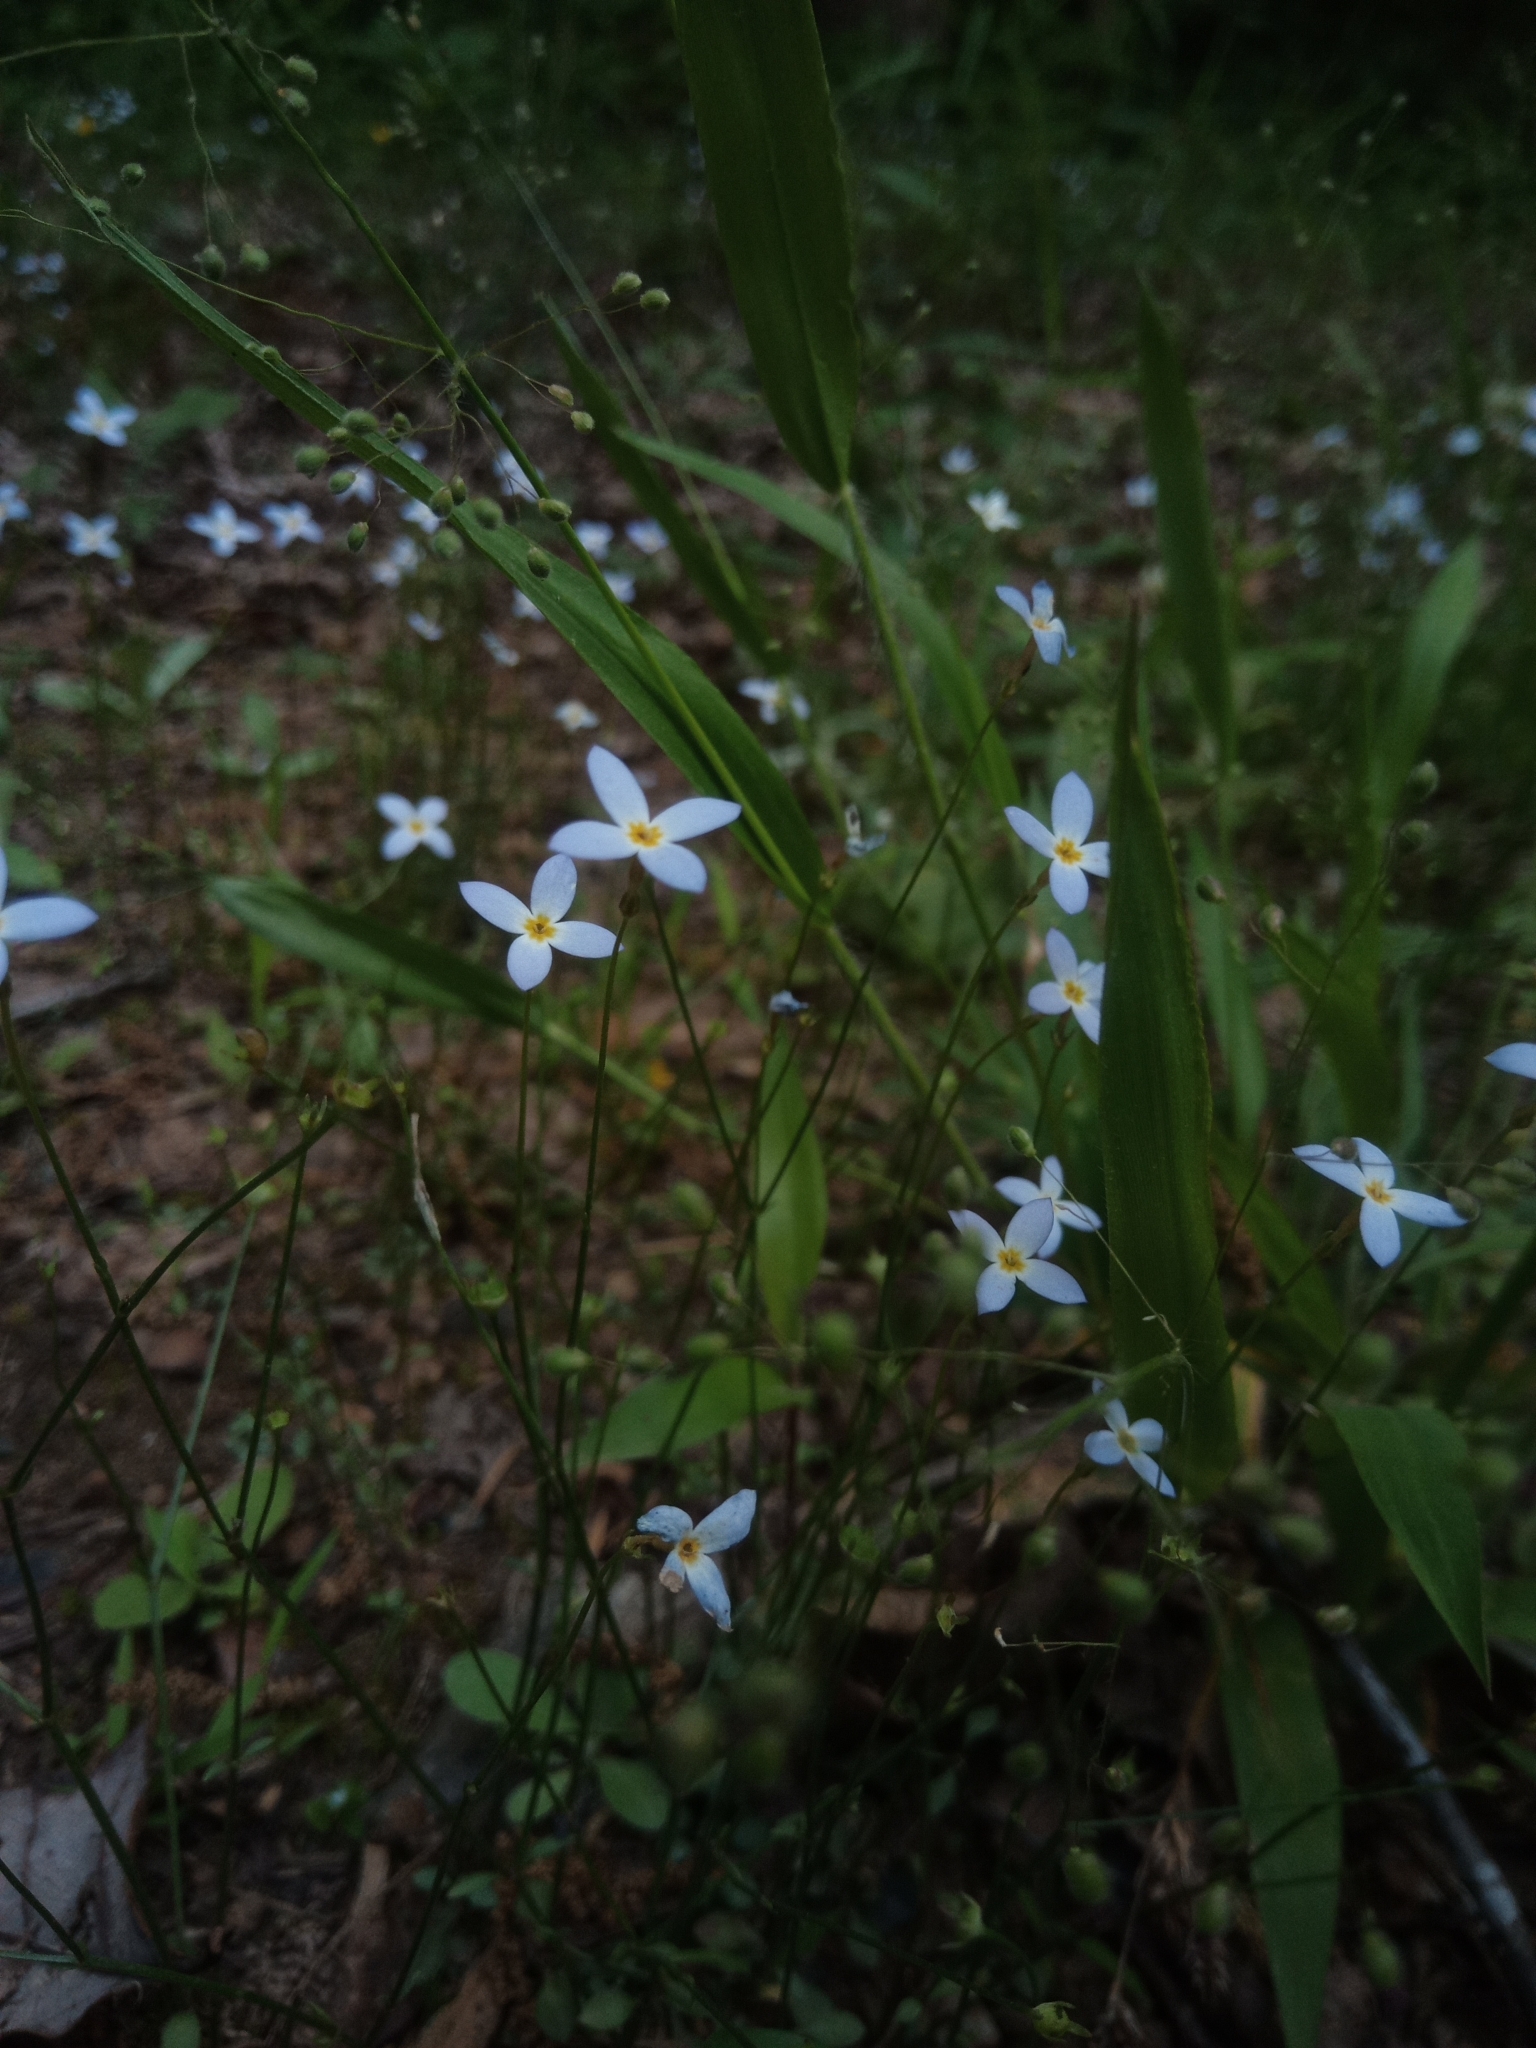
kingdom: Plantae
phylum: Tracheophyta
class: Magnoliopsida
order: Gentianales
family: Rubiaceae
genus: Houstonia
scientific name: Houstonia caerulea
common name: Bluets
